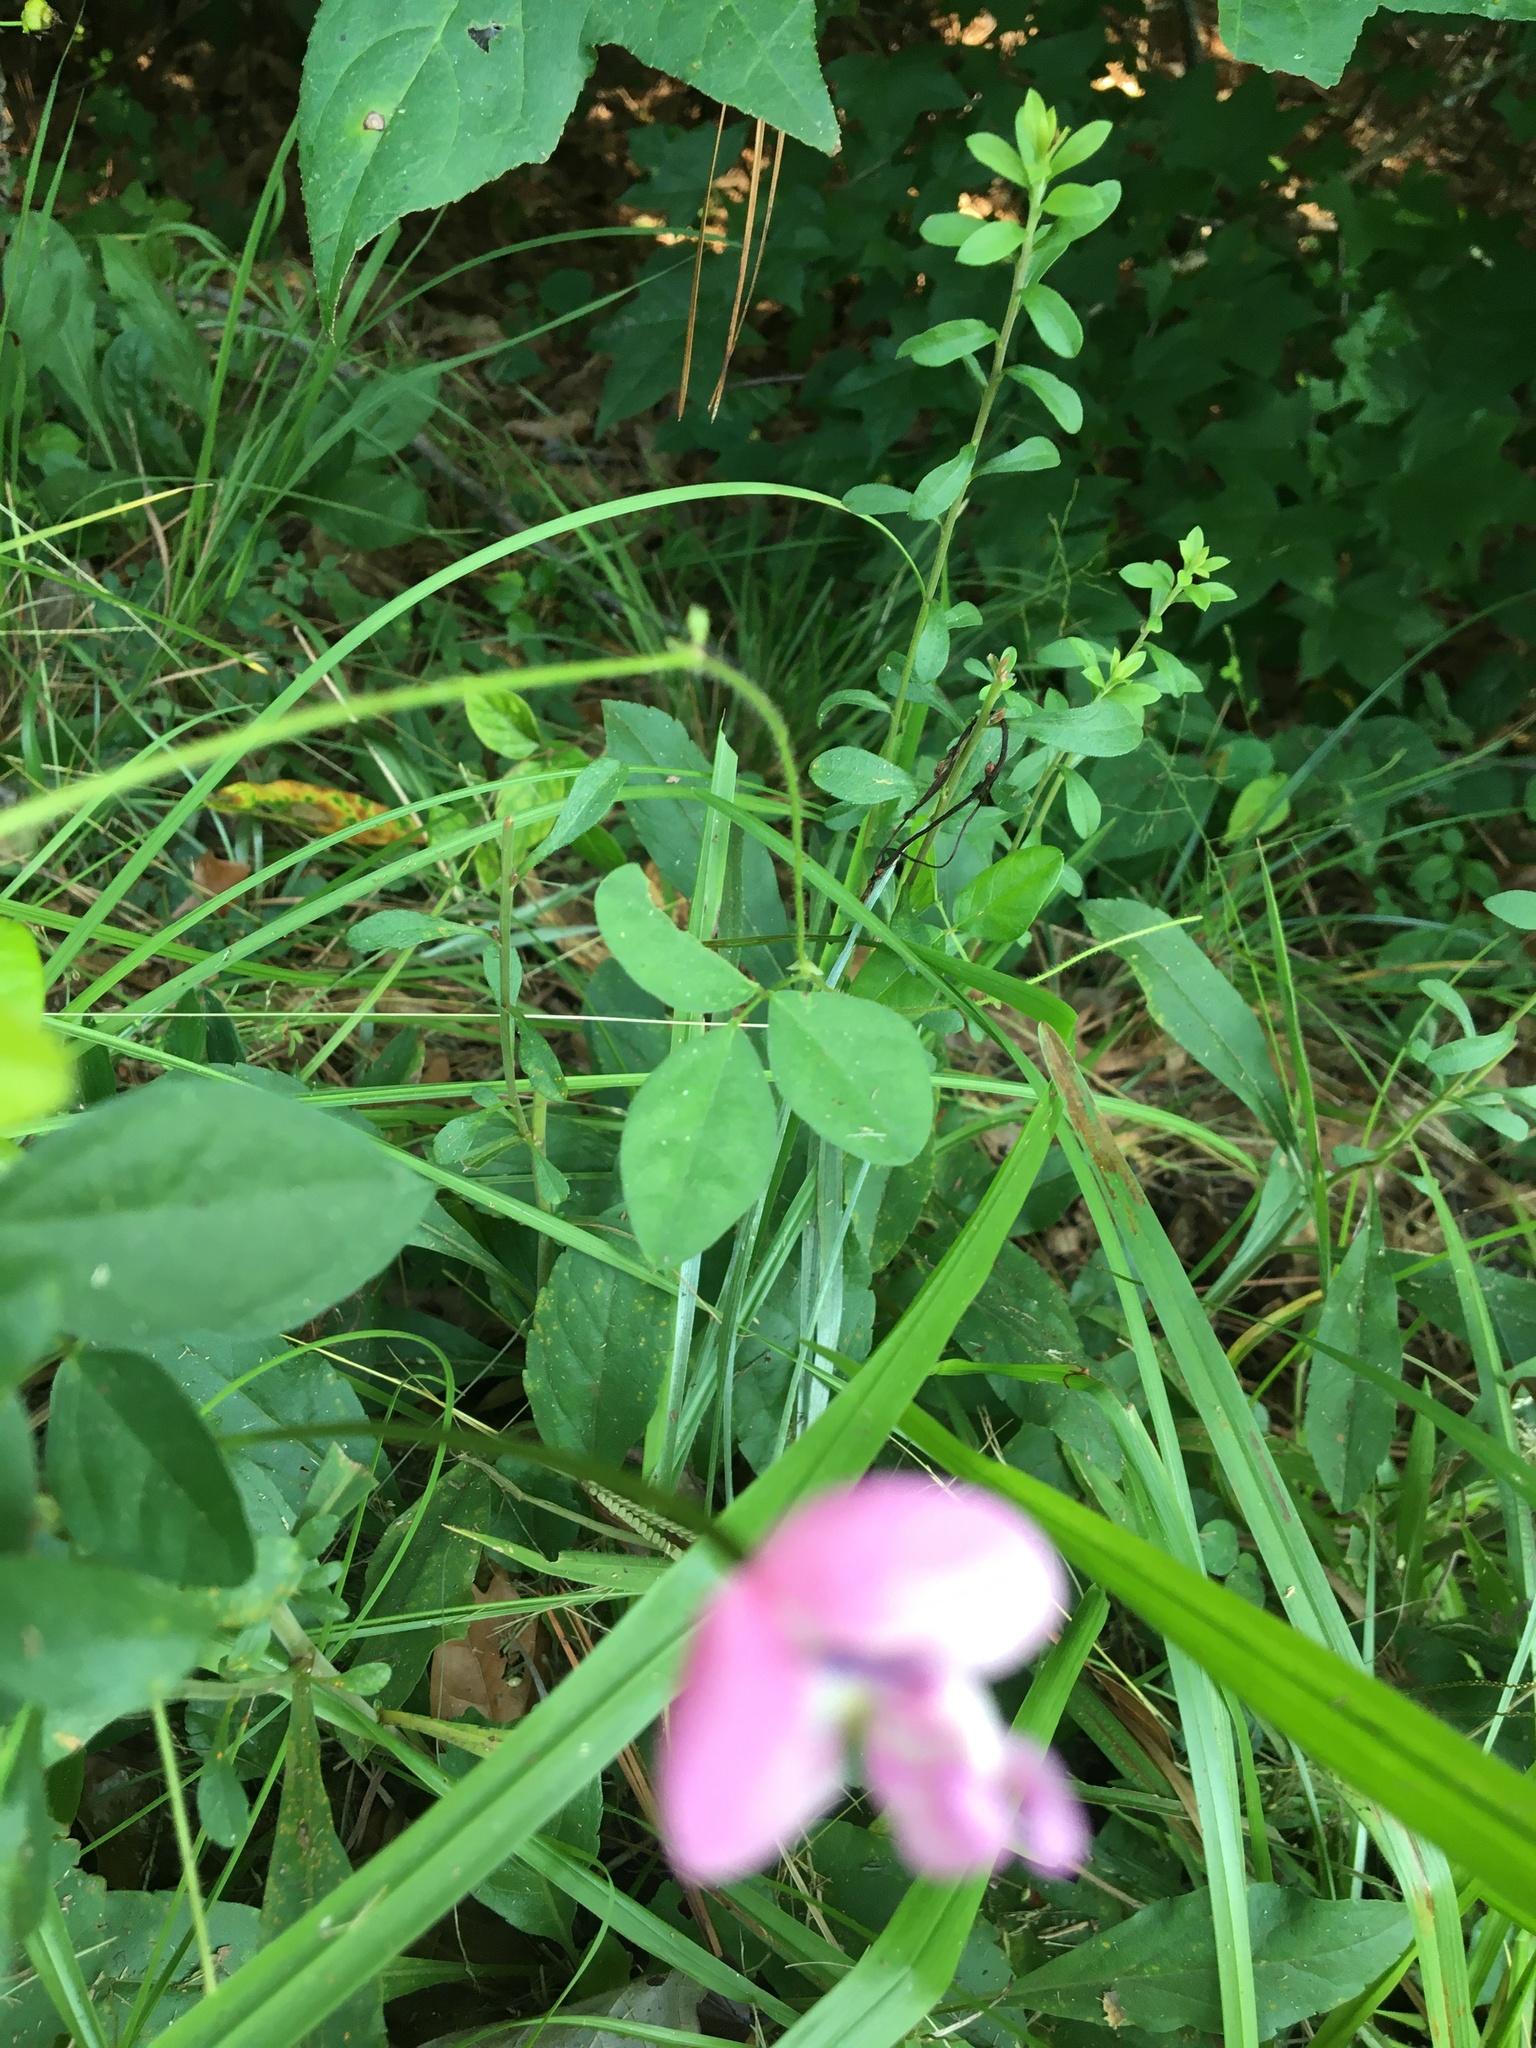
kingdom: Plantae
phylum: Tracheophyta
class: Magnoliopsida
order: Fabales
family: Fabaceae
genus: Strophostyles
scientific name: Strophostyles umbellata
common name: Perennial wild bean
